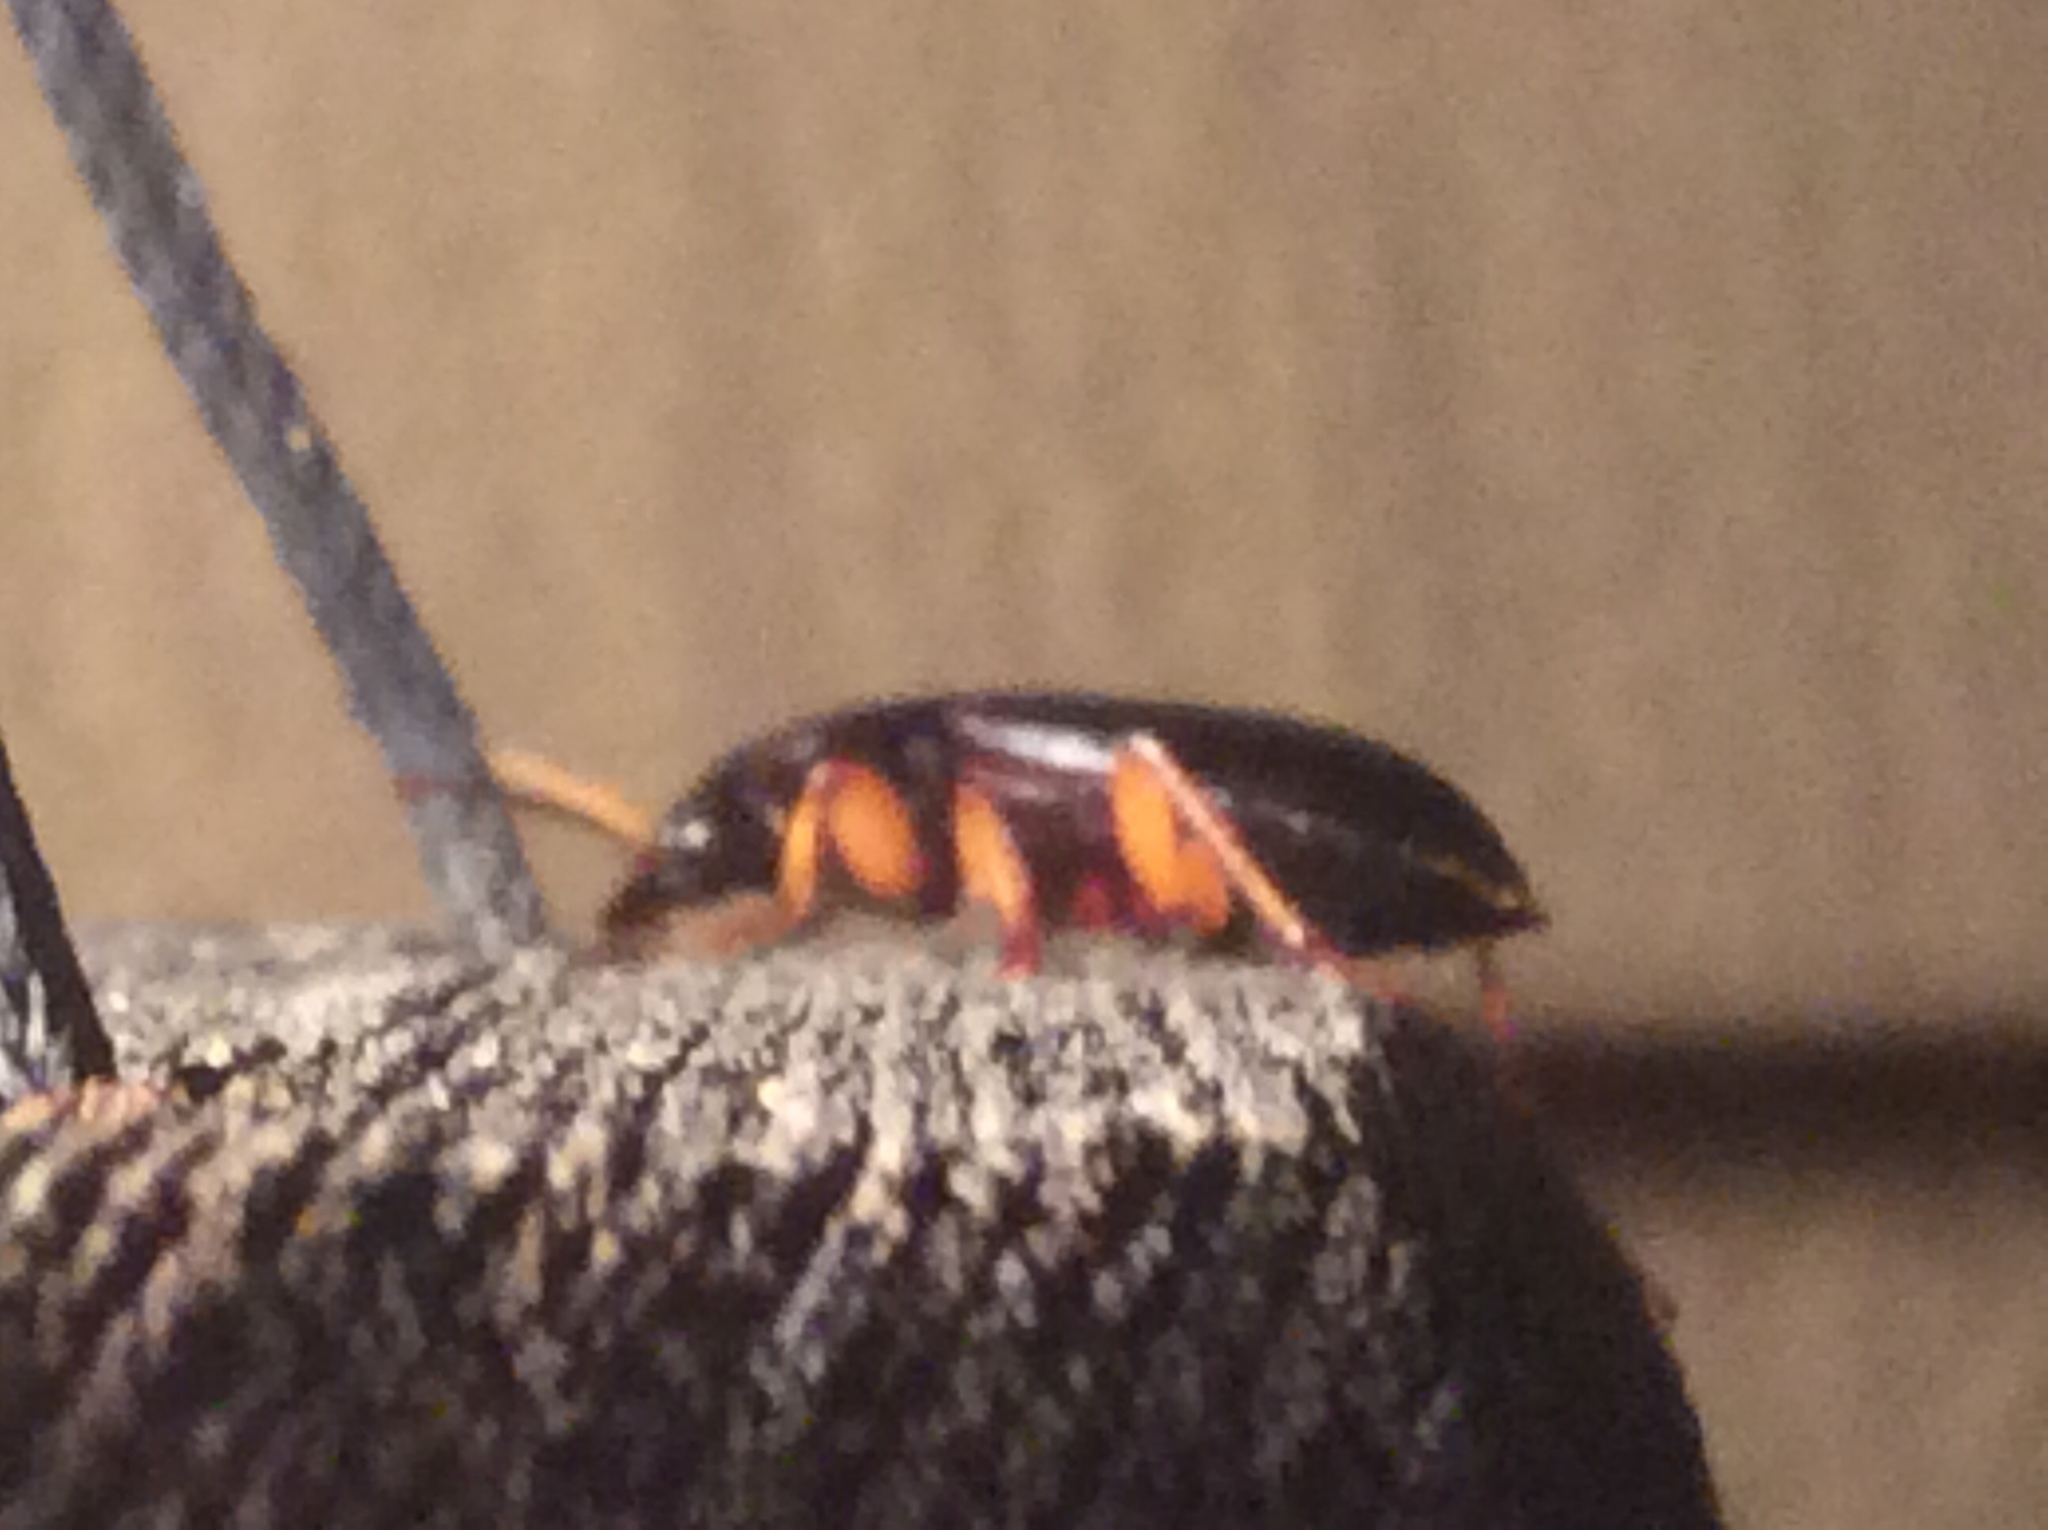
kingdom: Animalia
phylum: Arthropoda
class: Insecta
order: Coleoptera
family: Carabidae
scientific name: Carabidae
